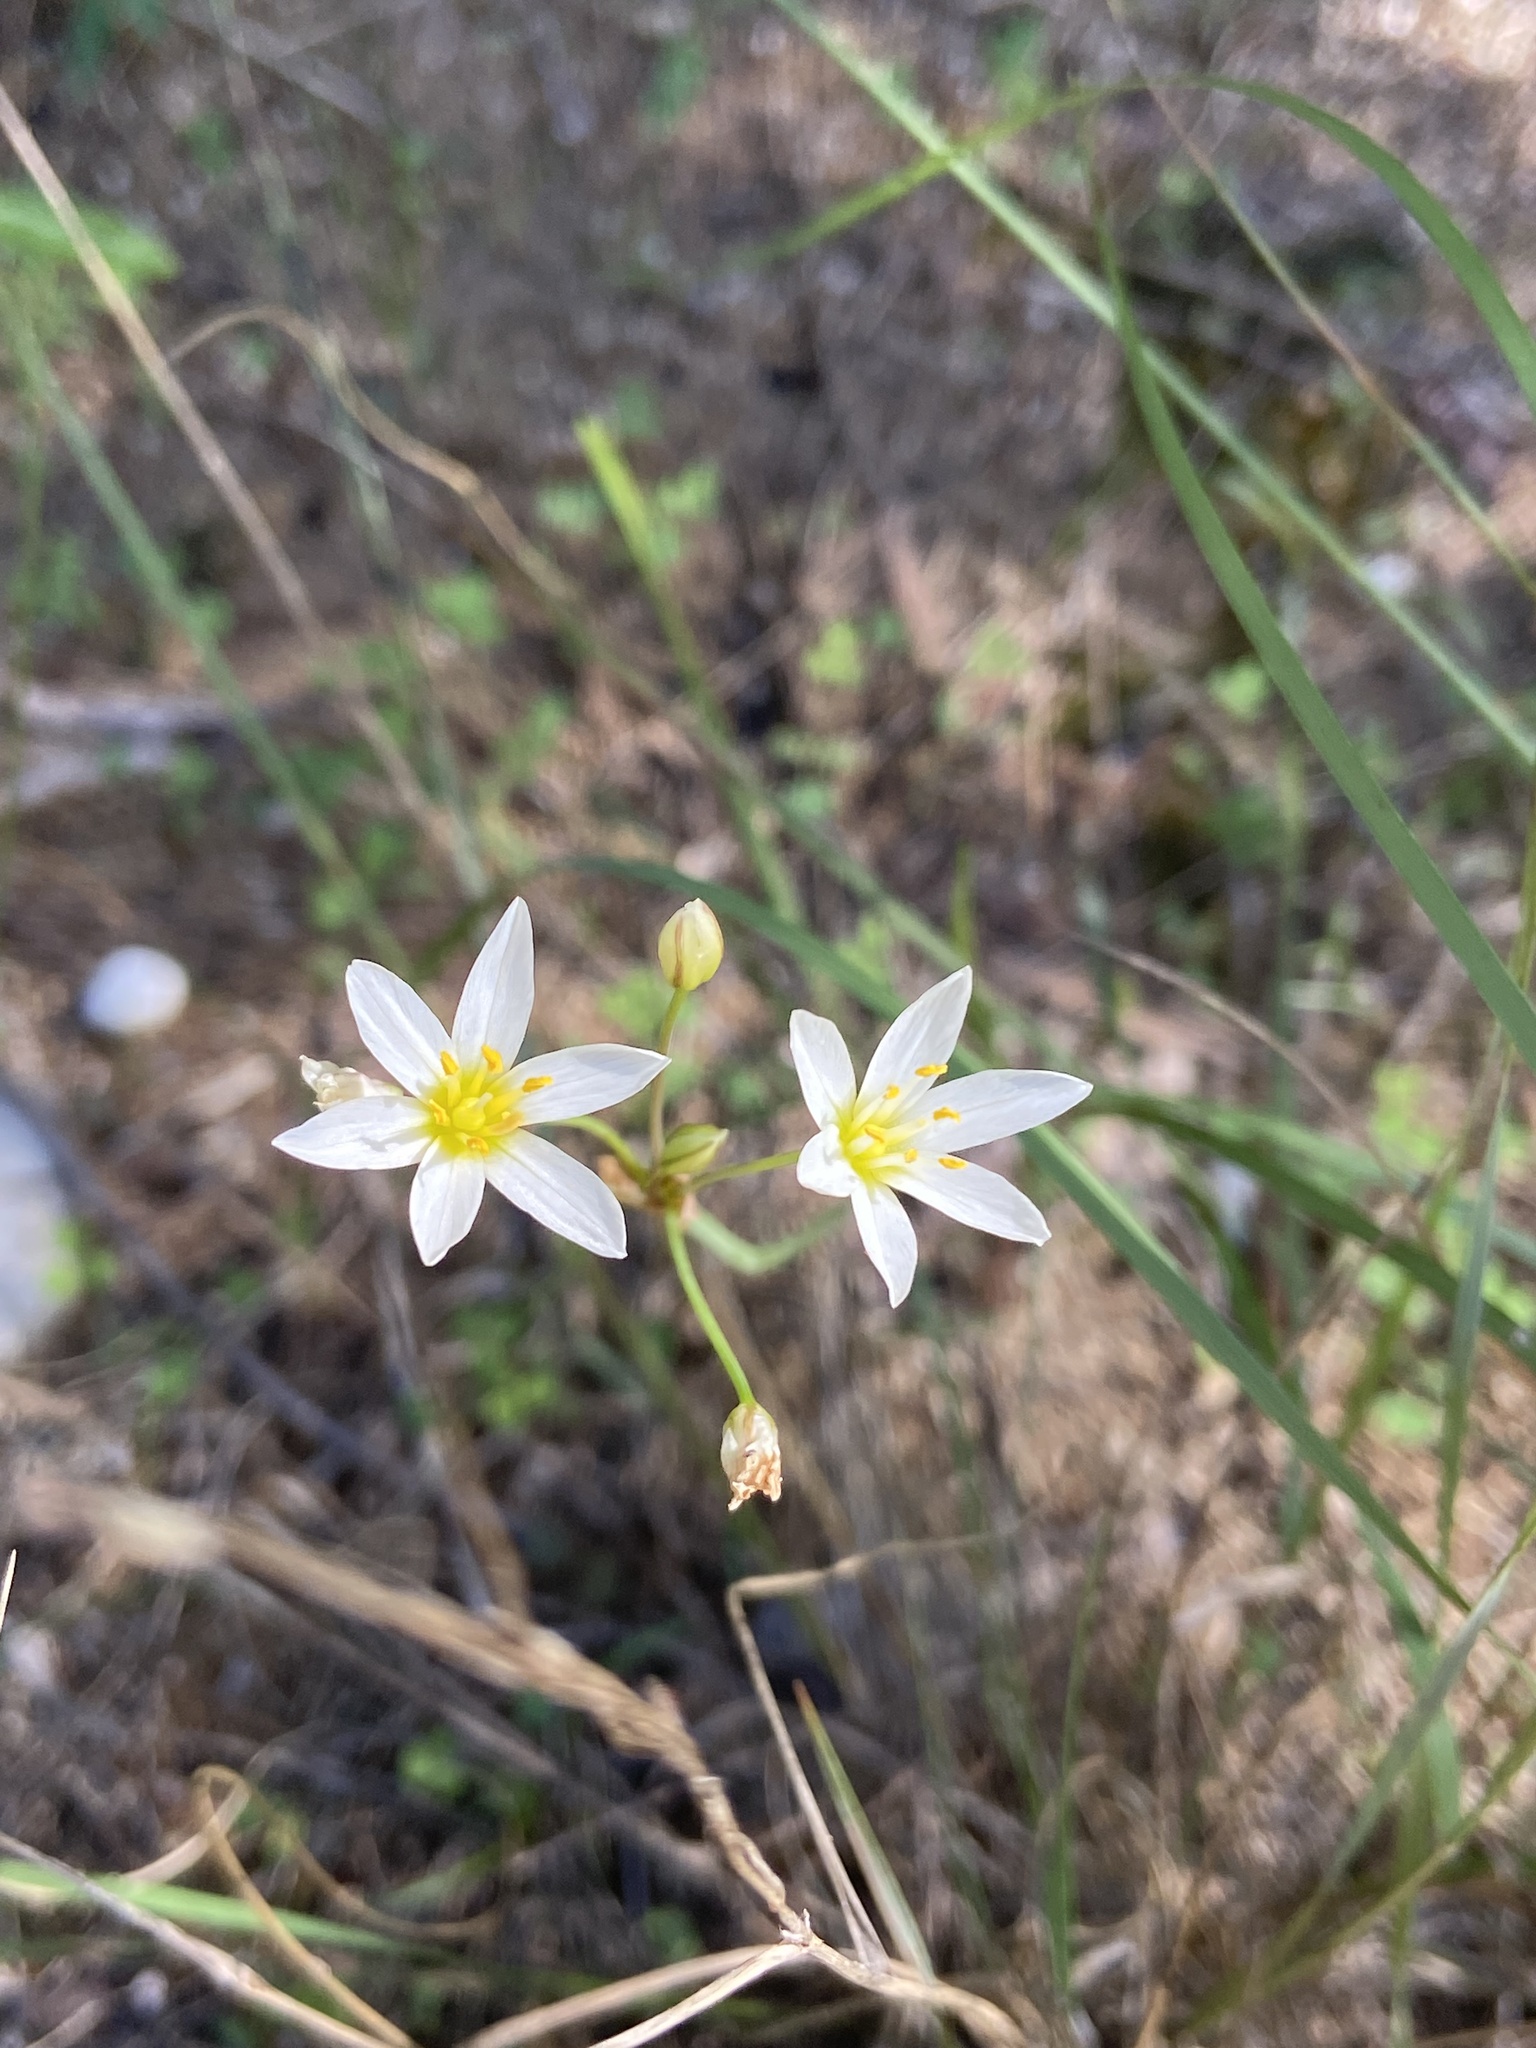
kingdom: Plantae
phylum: Tracheophyta
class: Liliopsida
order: Asparagales
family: Amaryllidaceae
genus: Nothoscordum
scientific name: Nothoscordum bivalve
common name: Crow-poison
